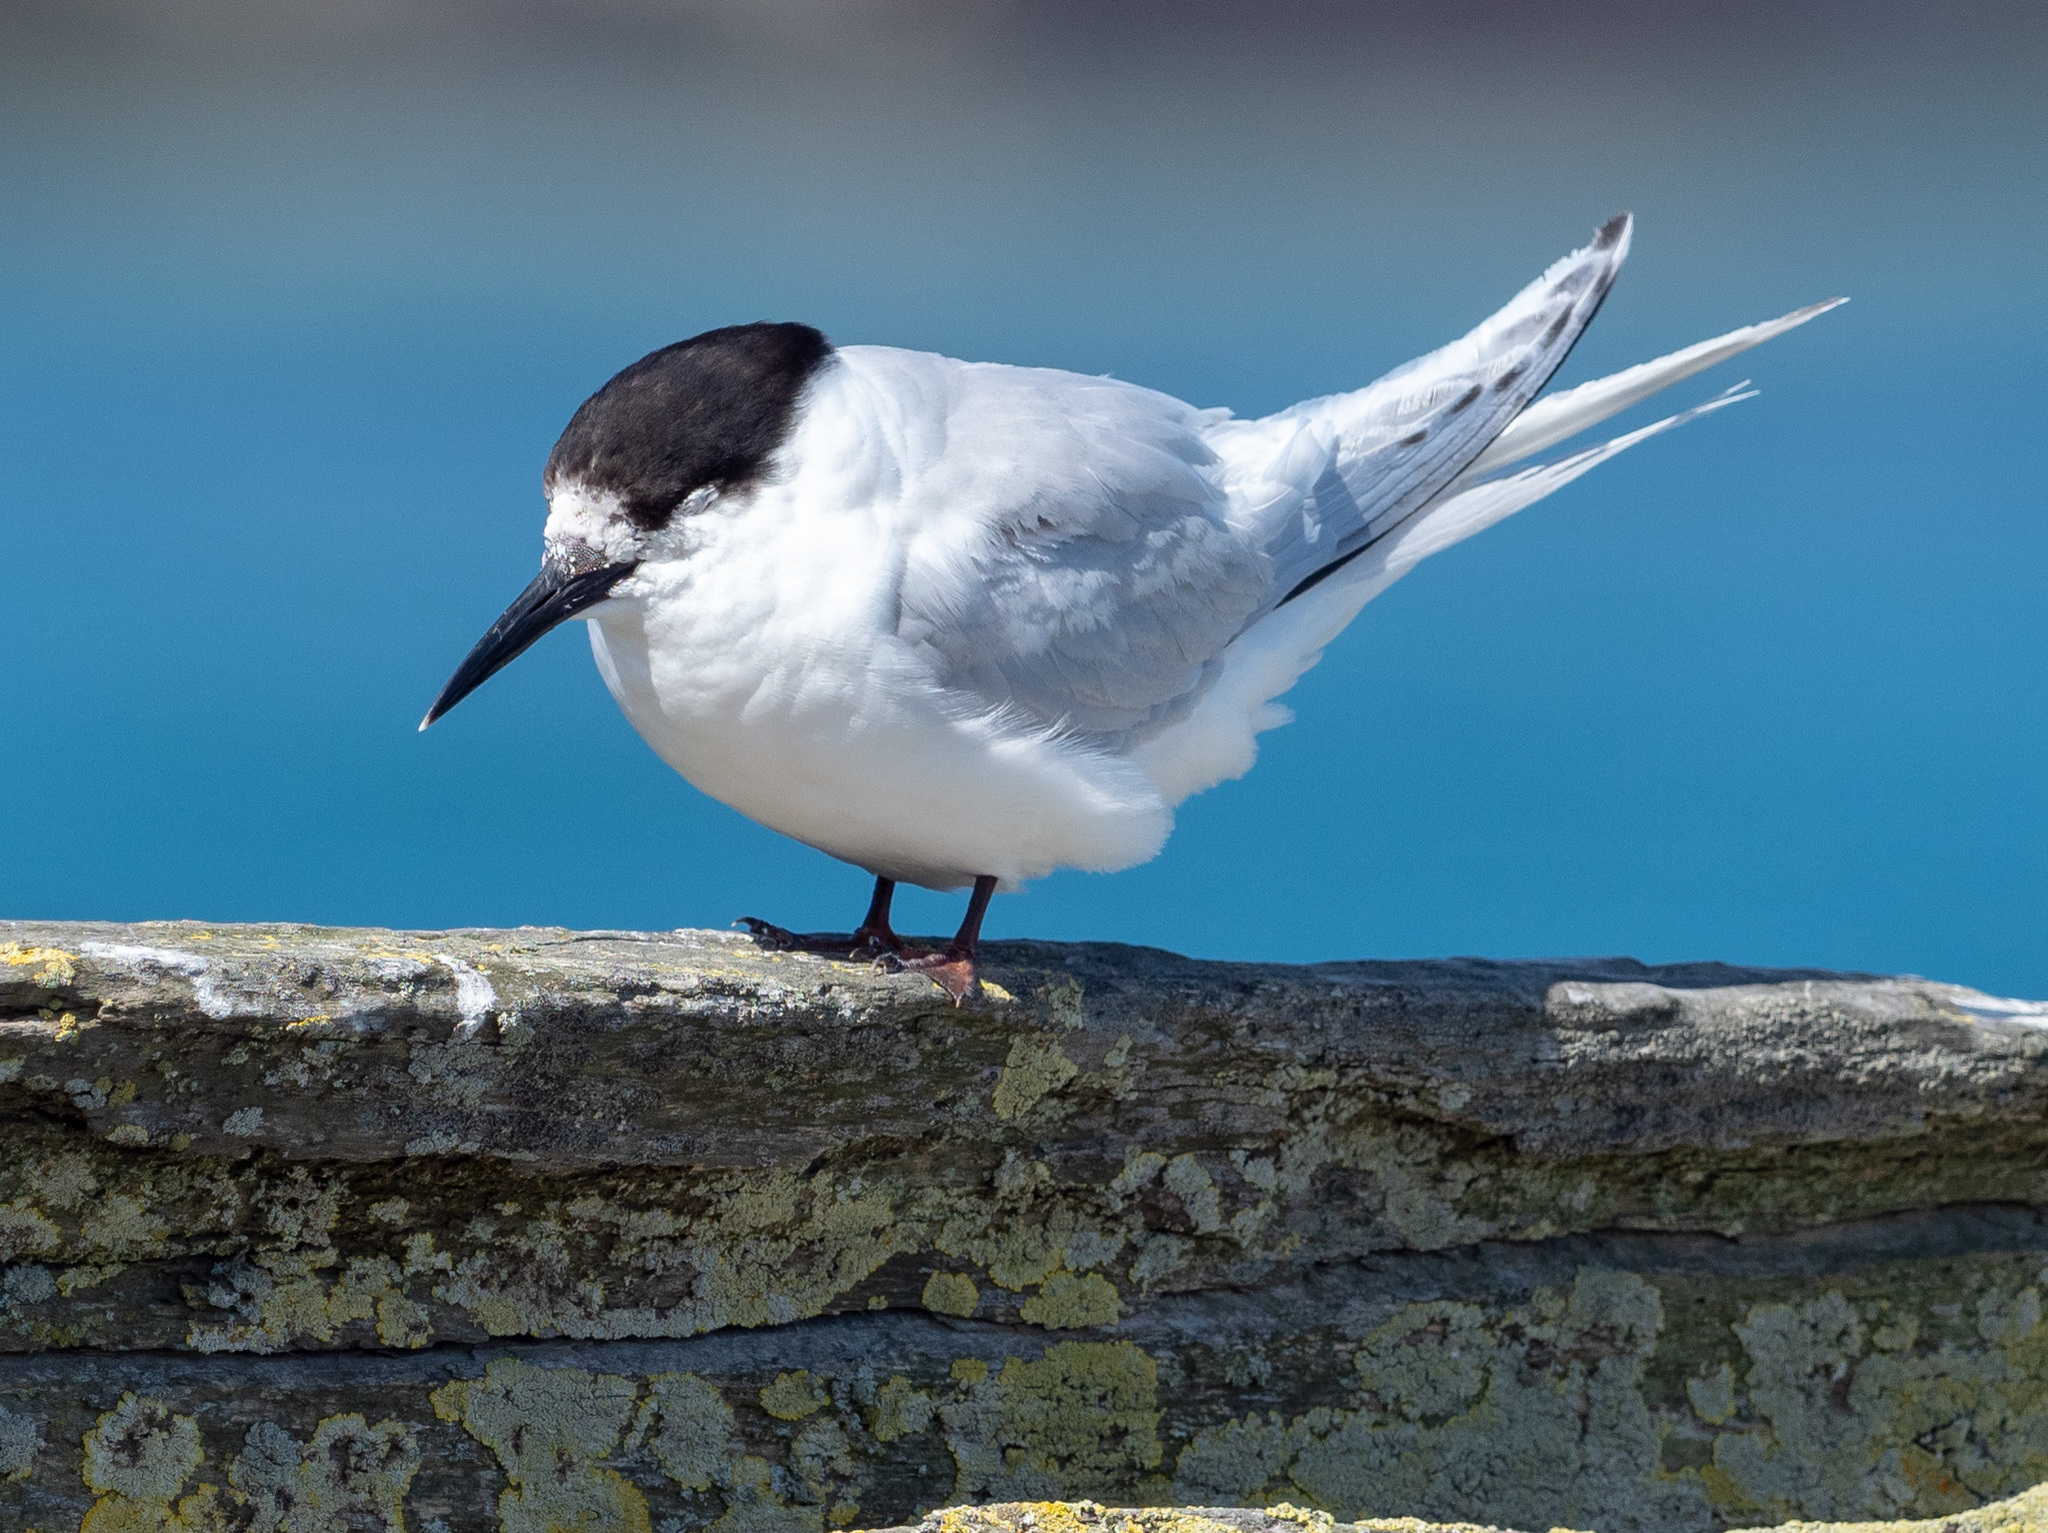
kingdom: Animalia
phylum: Chordata
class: Aves
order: Charadriiformes
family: Laridae
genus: Sterna
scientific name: Sterna striata
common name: White-fronted tern
